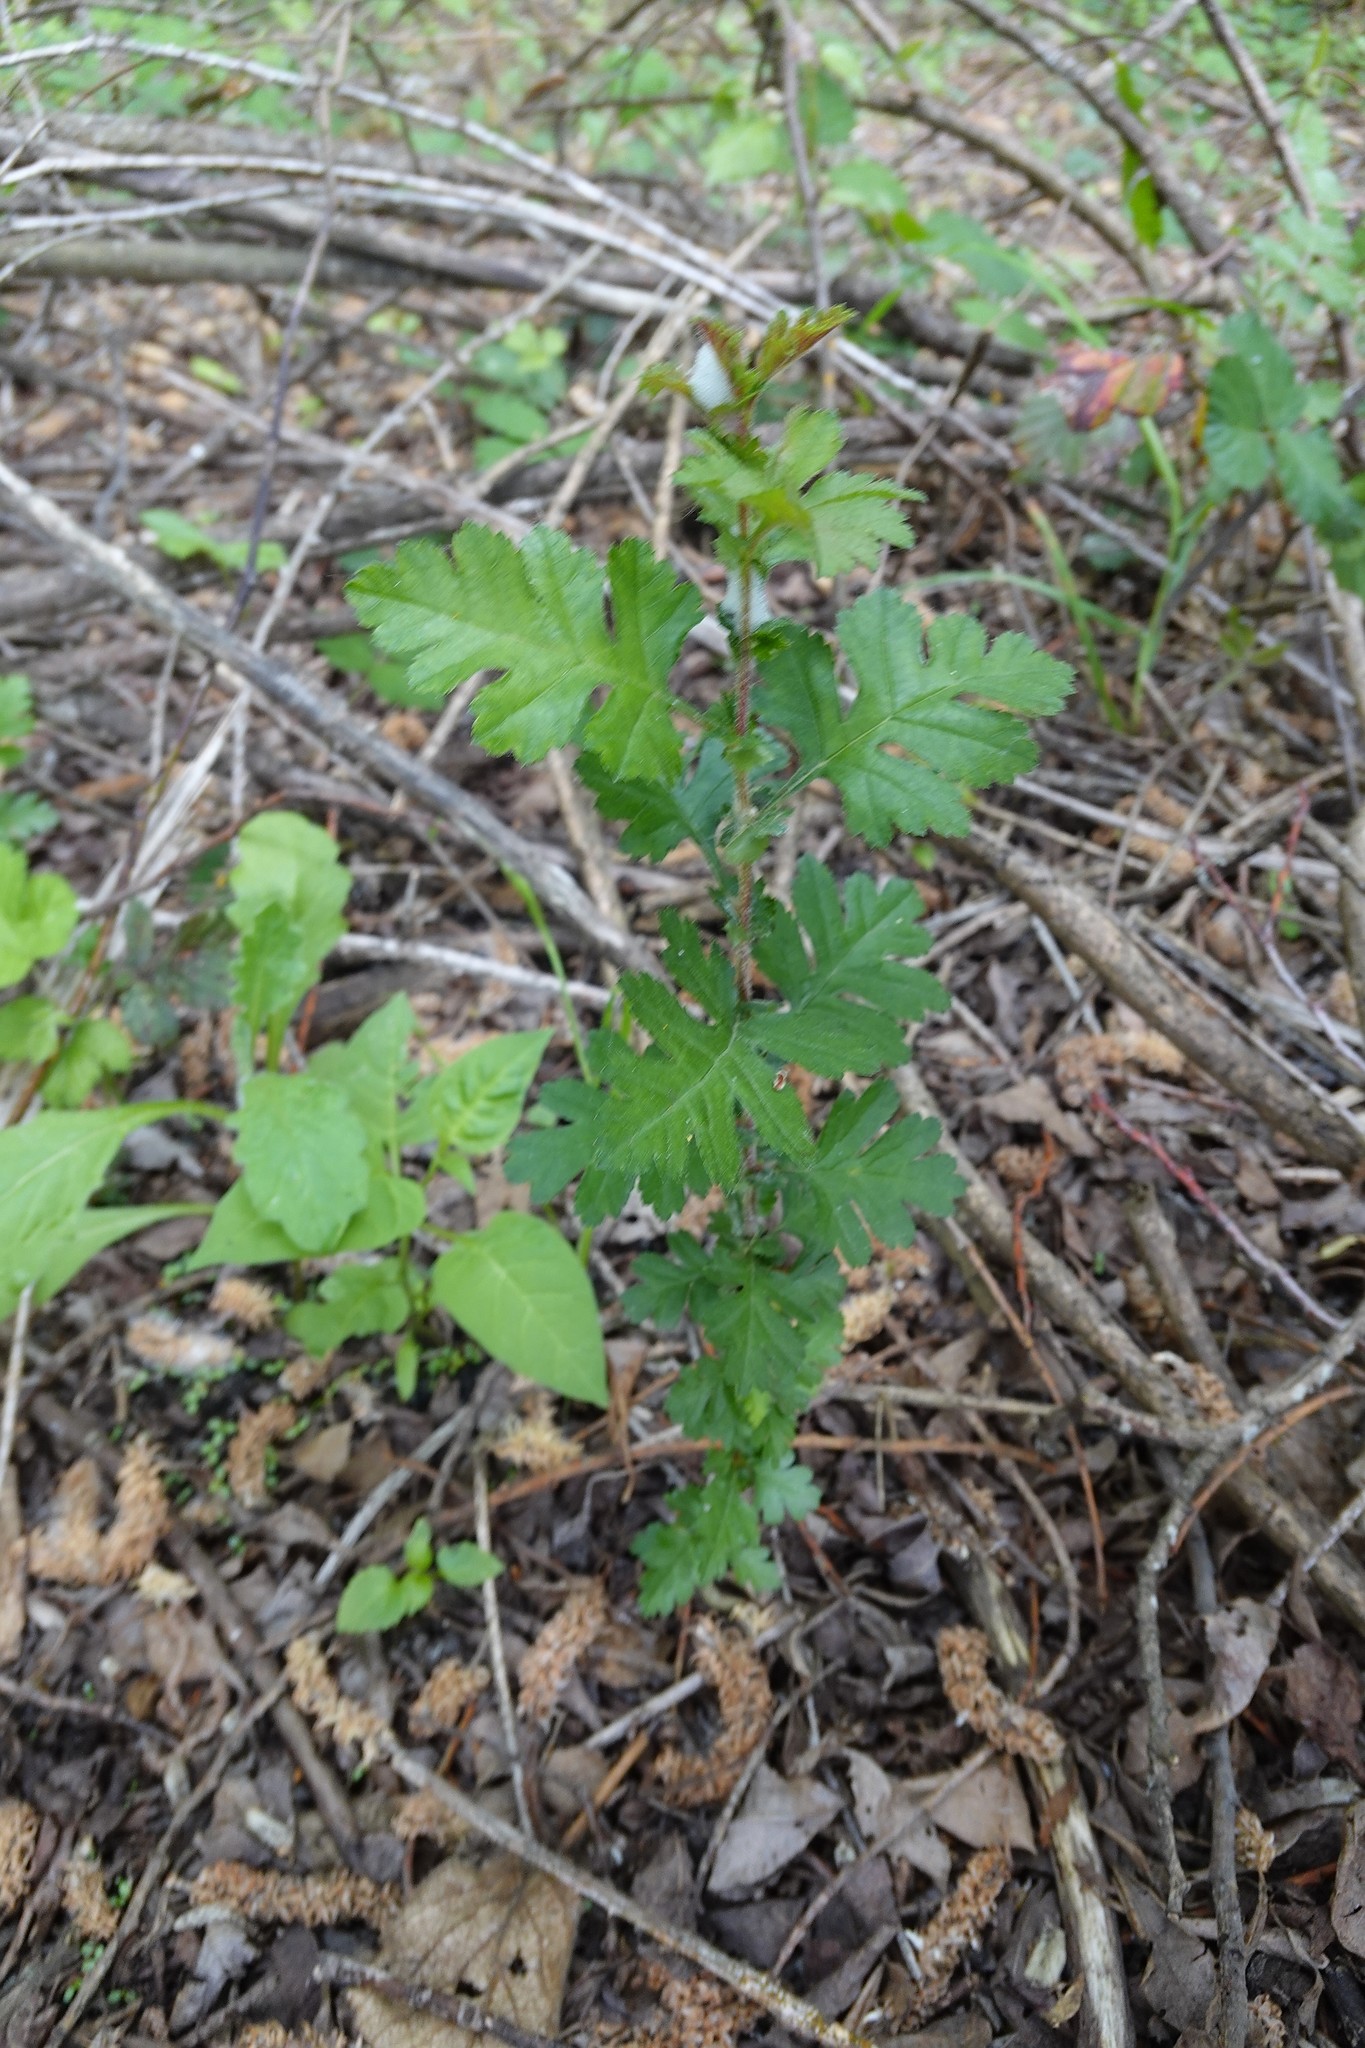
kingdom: Plantae
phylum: Tracheophyta
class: Magnoliopsida
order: Rosales
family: Rosaceae
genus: Crataegus
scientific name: Crataegus monogyna
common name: Hawthorn
